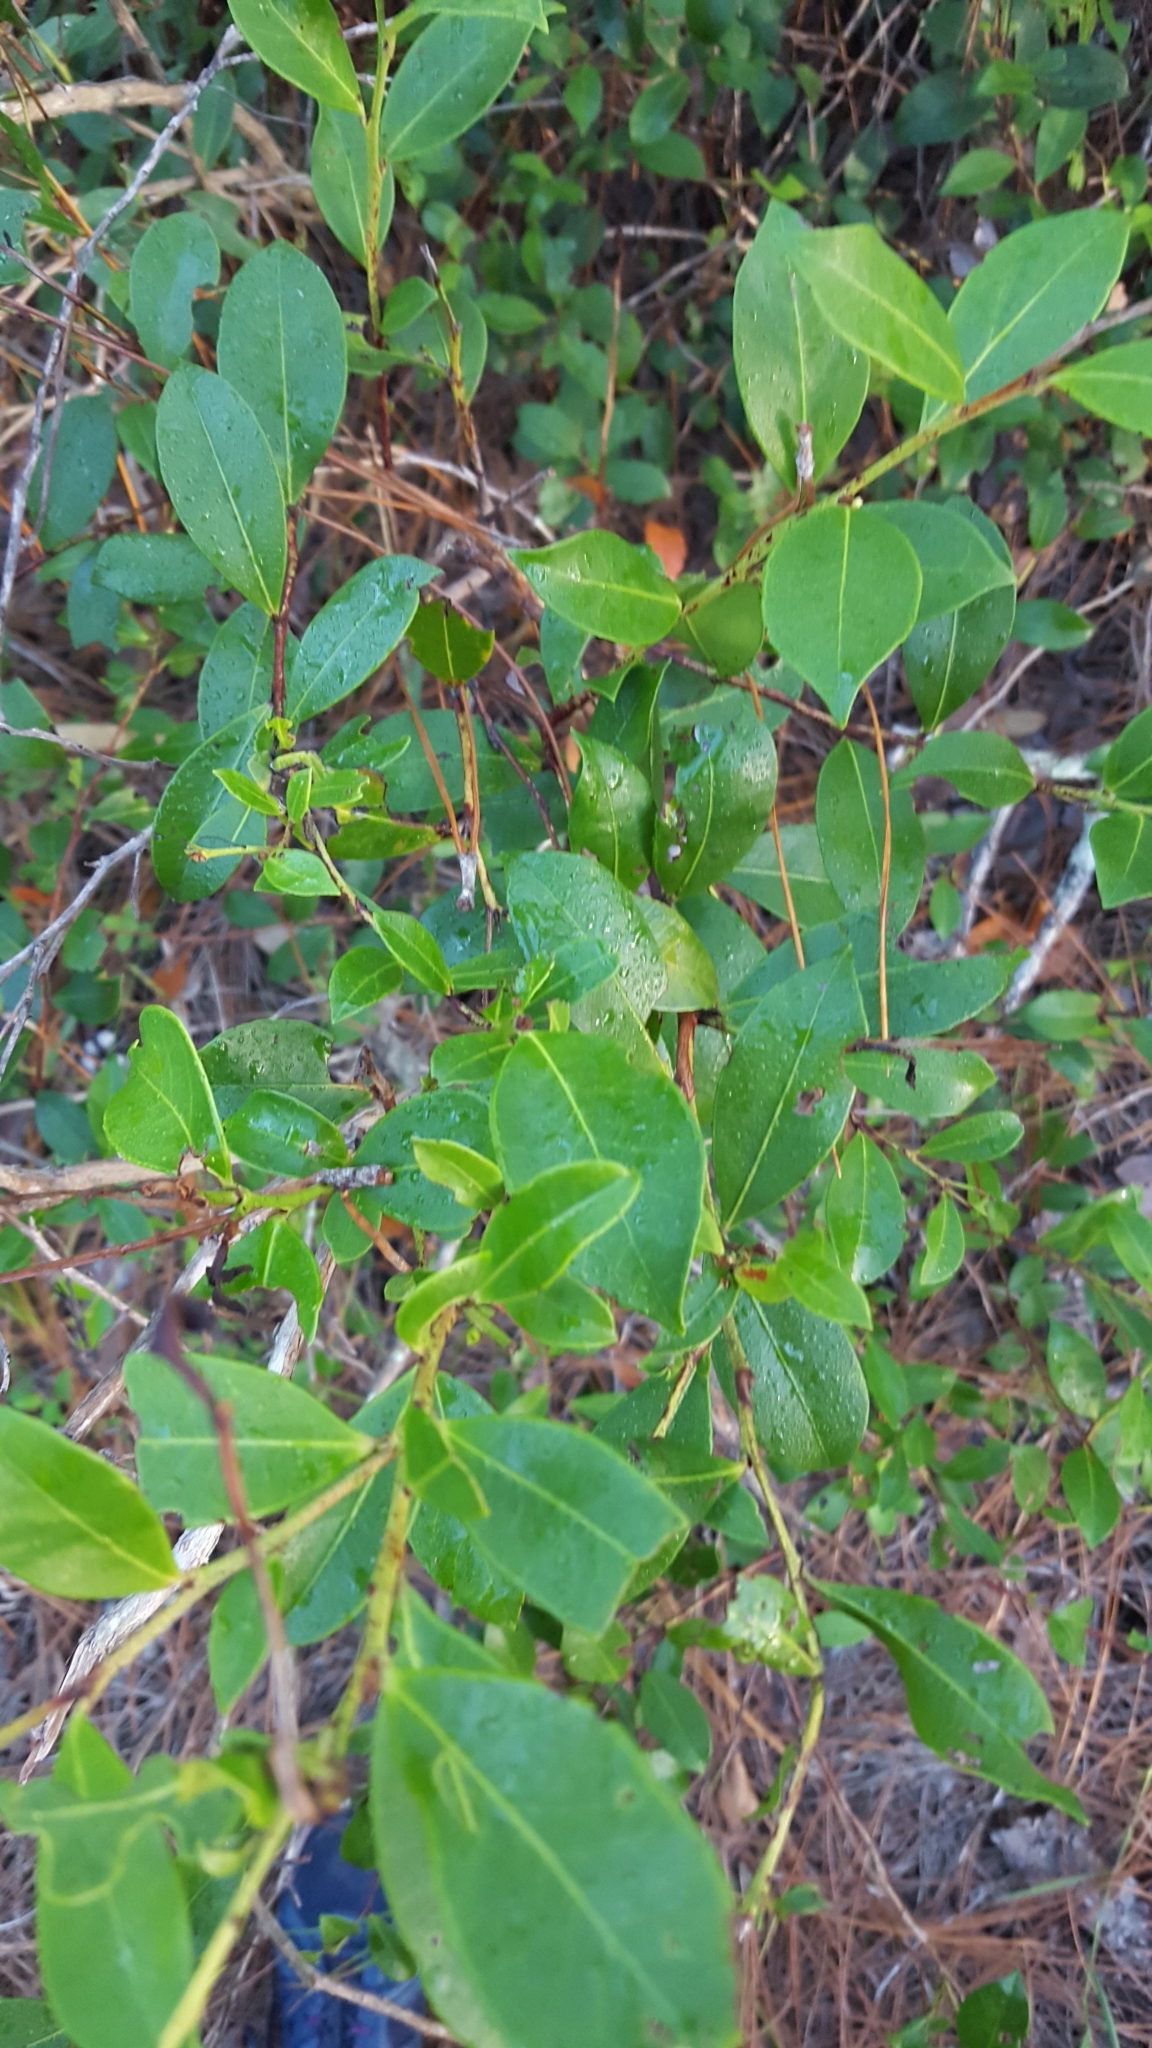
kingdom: Plantae
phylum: Tracheophyta
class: Magnoliopsida
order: Ericales
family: Ericaceae
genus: Lyonia
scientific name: Lyonia lucida
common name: Fetterbush
